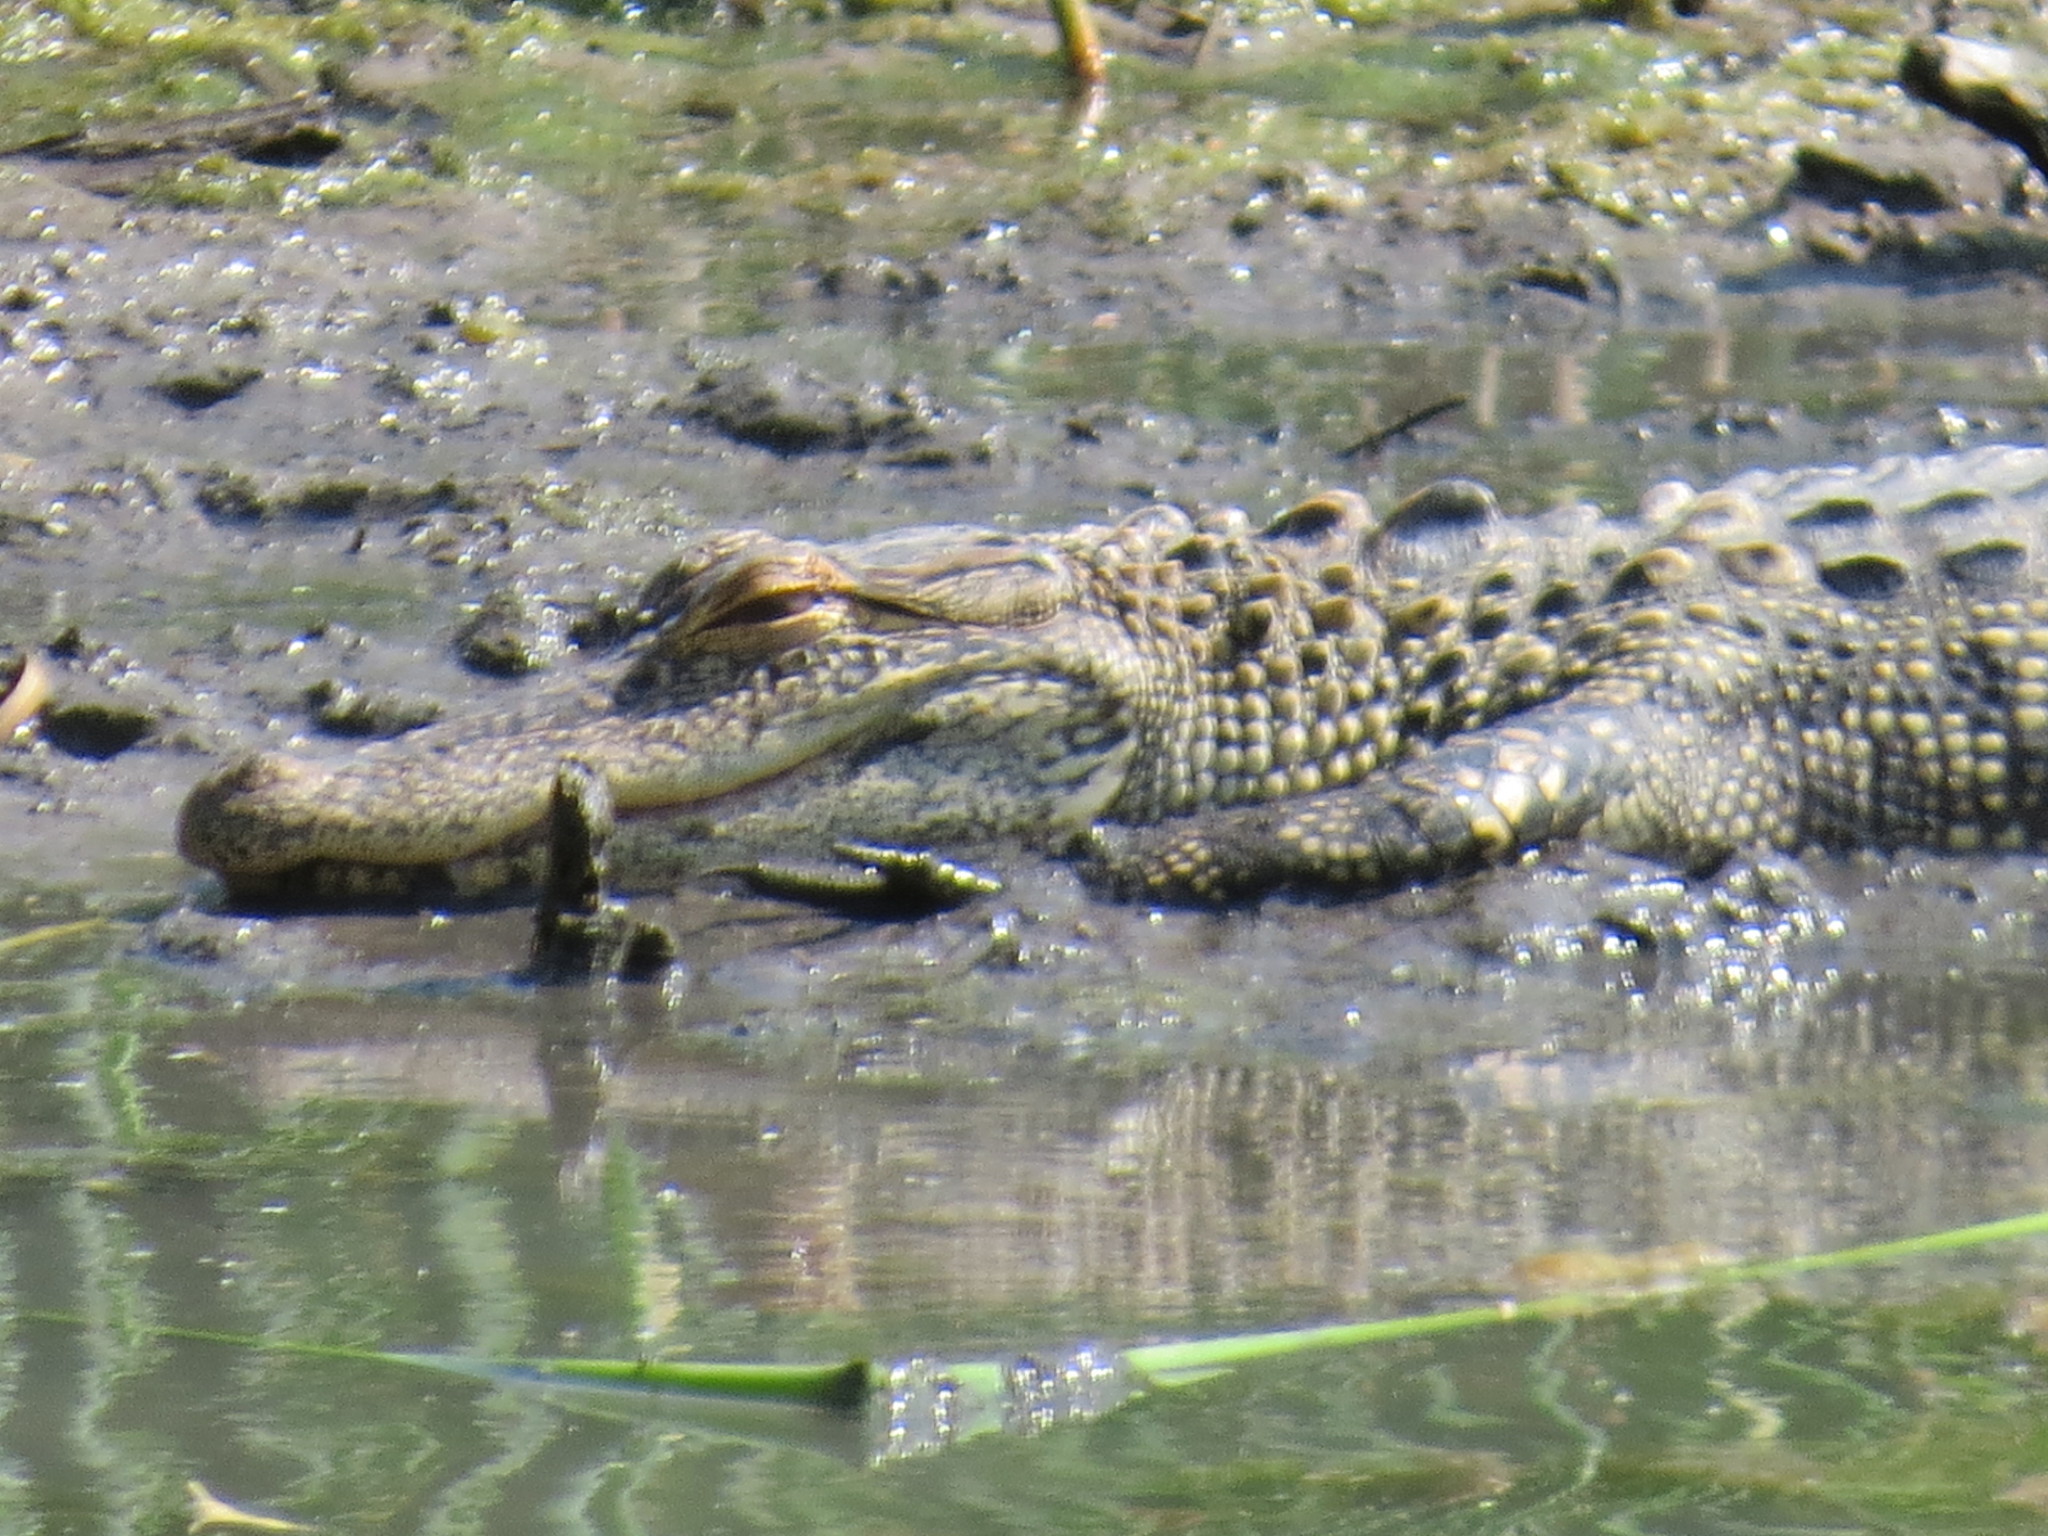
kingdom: Animalia
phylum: Chordata
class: Crocodylia
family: Alligatoridae
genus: Alligator
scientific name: Alligator mississippiensis
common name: American alligator
